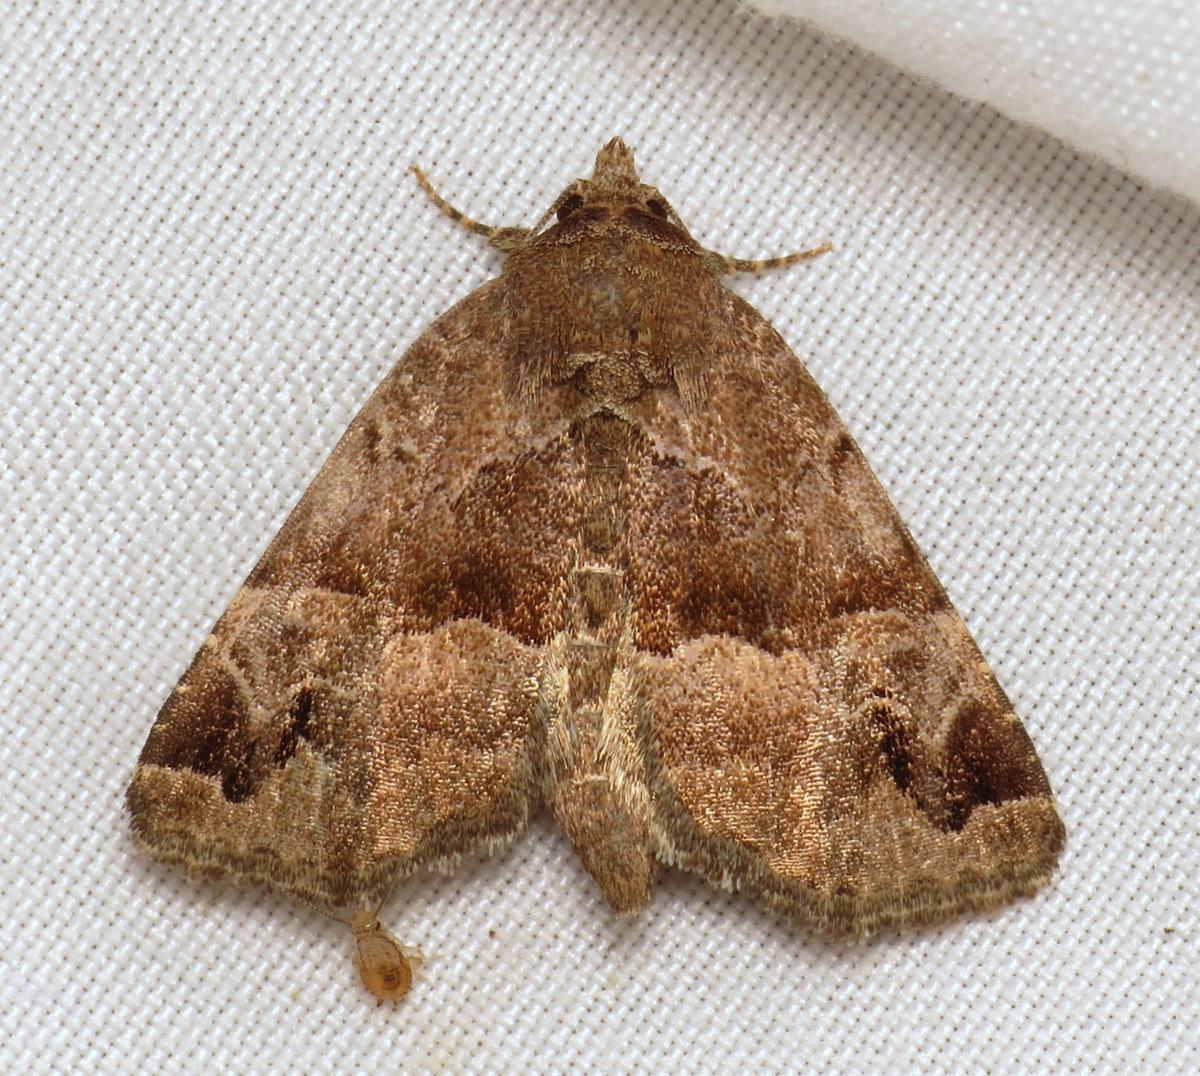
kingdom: Animalia
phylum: Arthropoda
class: Insecta
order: Lepidoptera
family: Noctuidae
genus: Niphonyx
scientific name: Niphonyx segregata
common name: Hops angleshade moth
